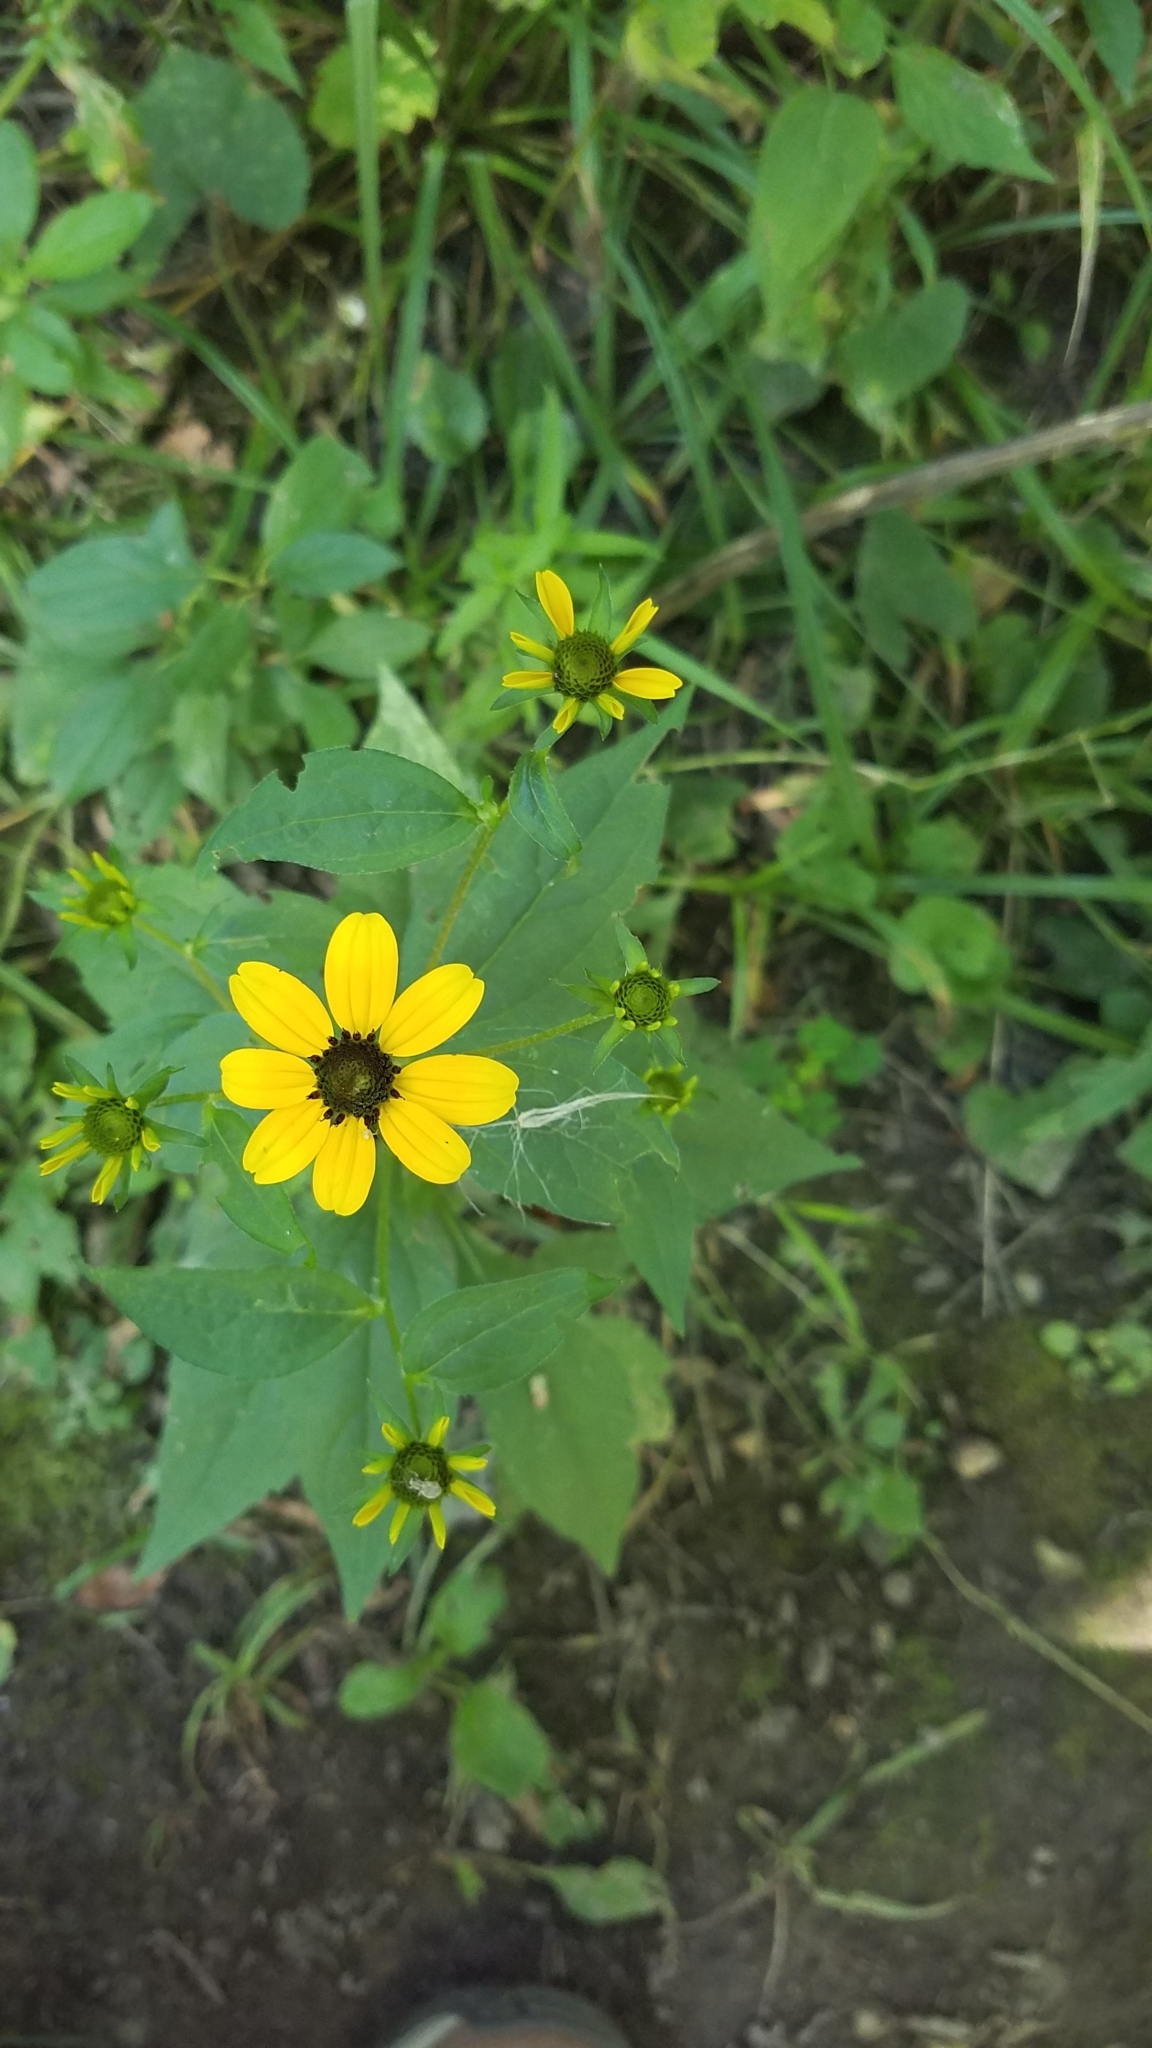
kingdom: Plantae
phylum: Tracheophyta
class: Magnoliopsida
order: Asterales
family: Asteraceae
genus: Rudbeckia
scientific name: Rudbeckia triloba
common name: Thin-leaved coneflower
